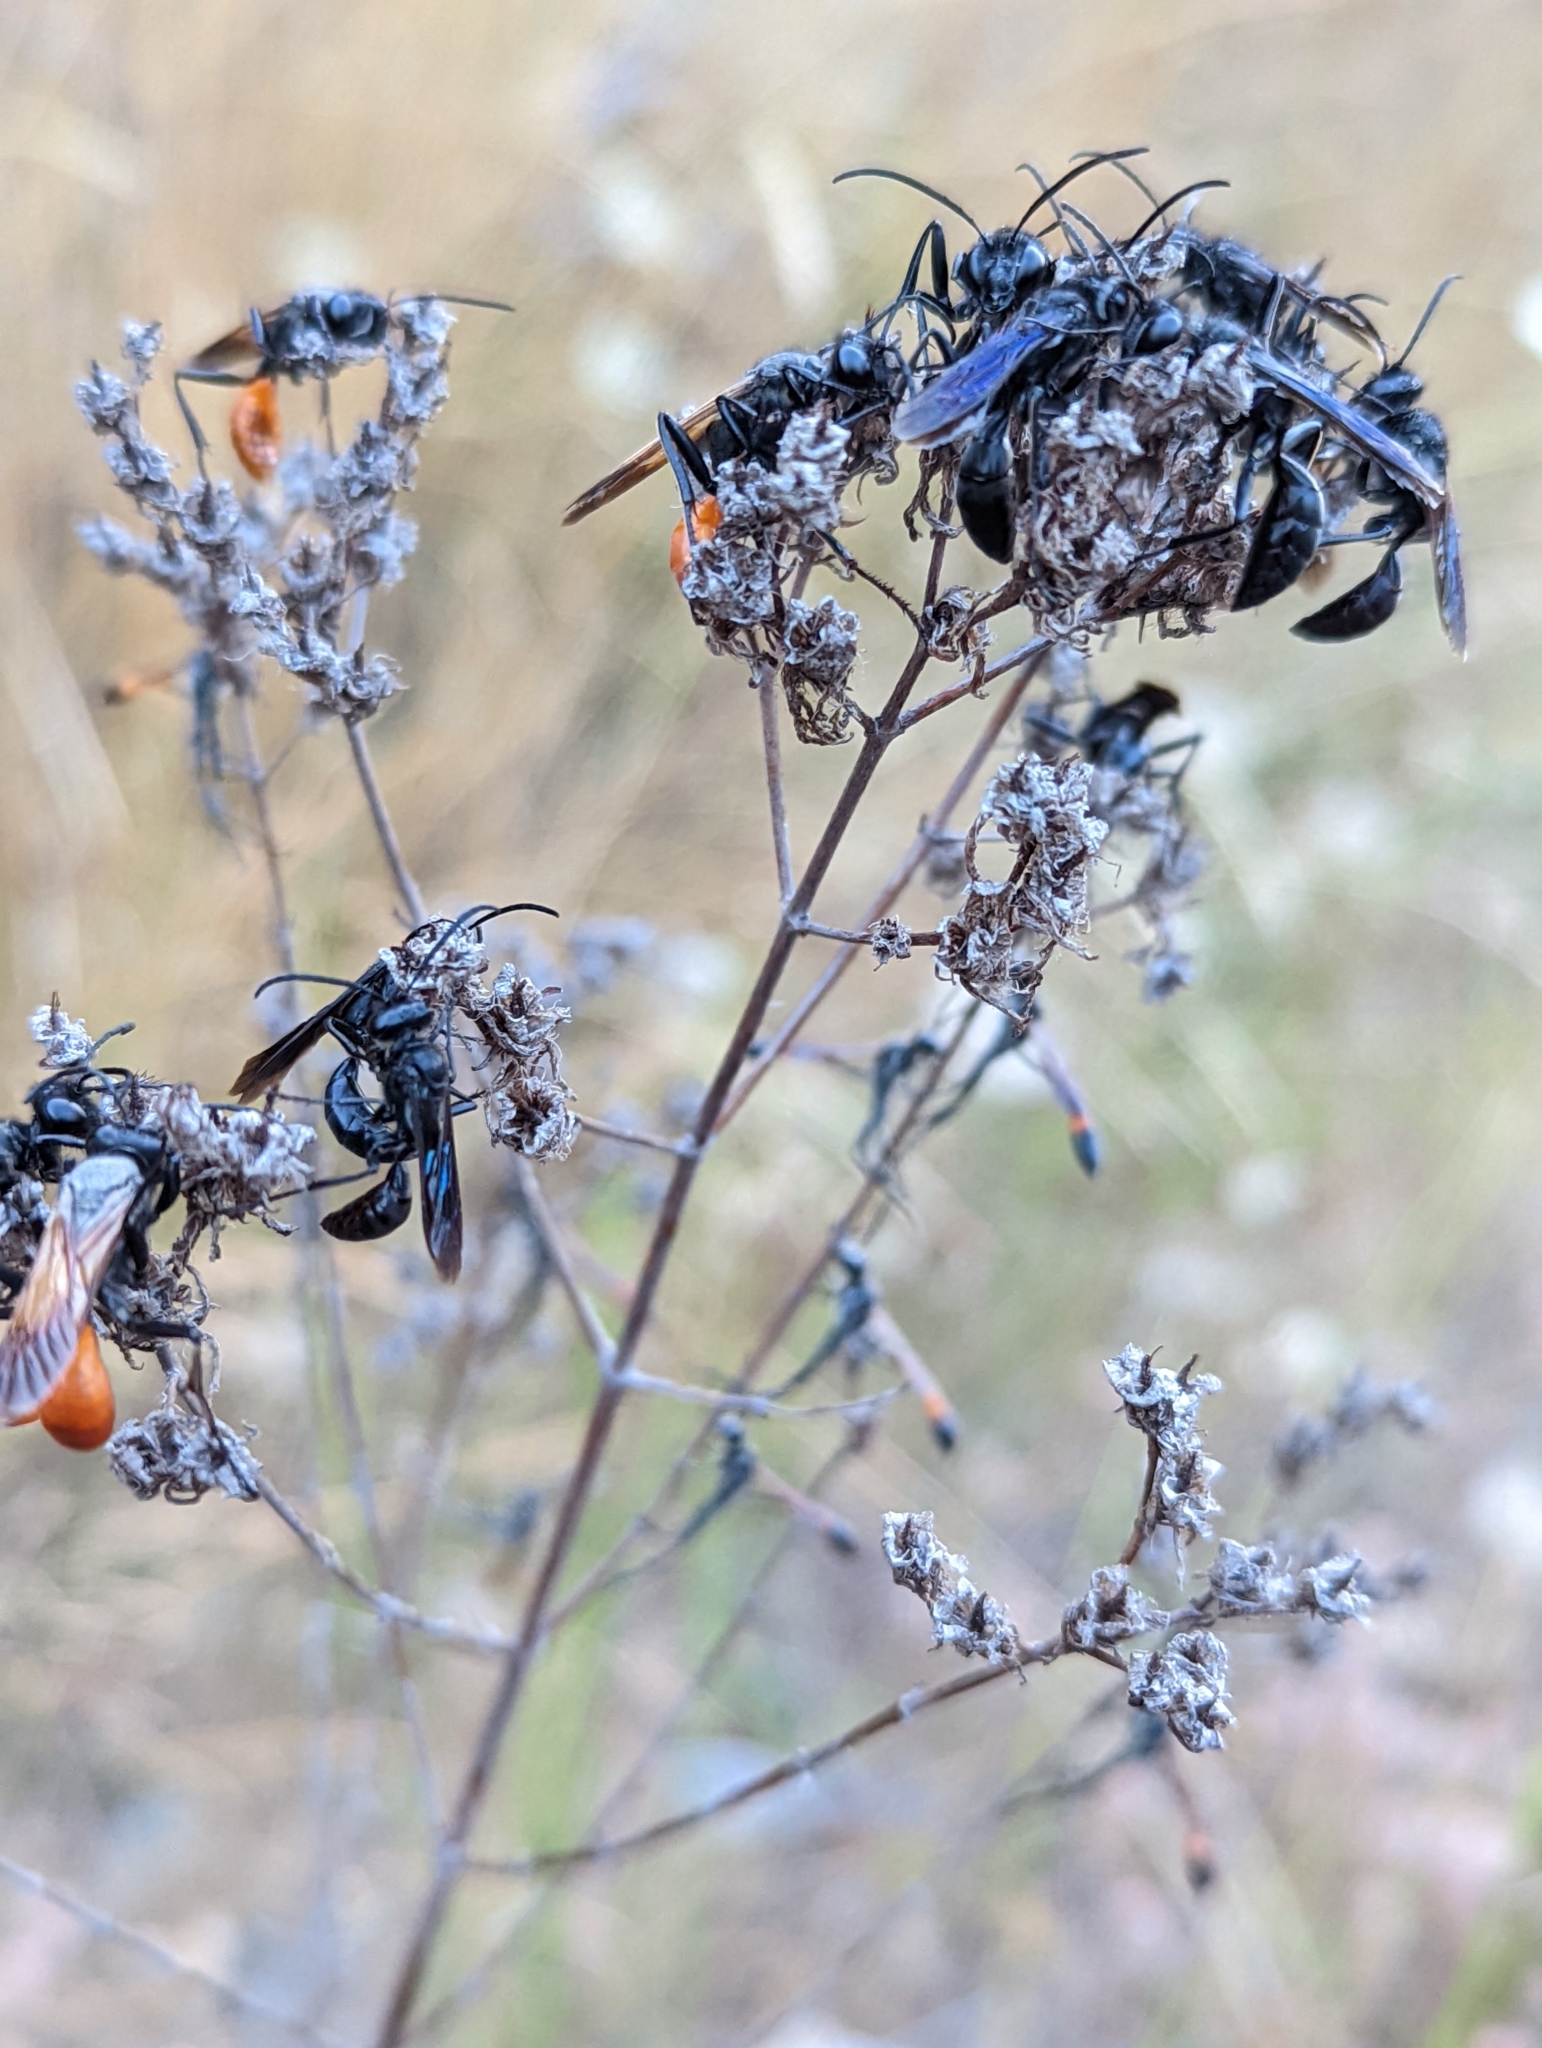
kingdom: Animalia
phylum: Arthropoda
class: Insecta
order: Hymenoptera
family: Sphecidae
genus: Sphex
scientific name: Sphex lucae
